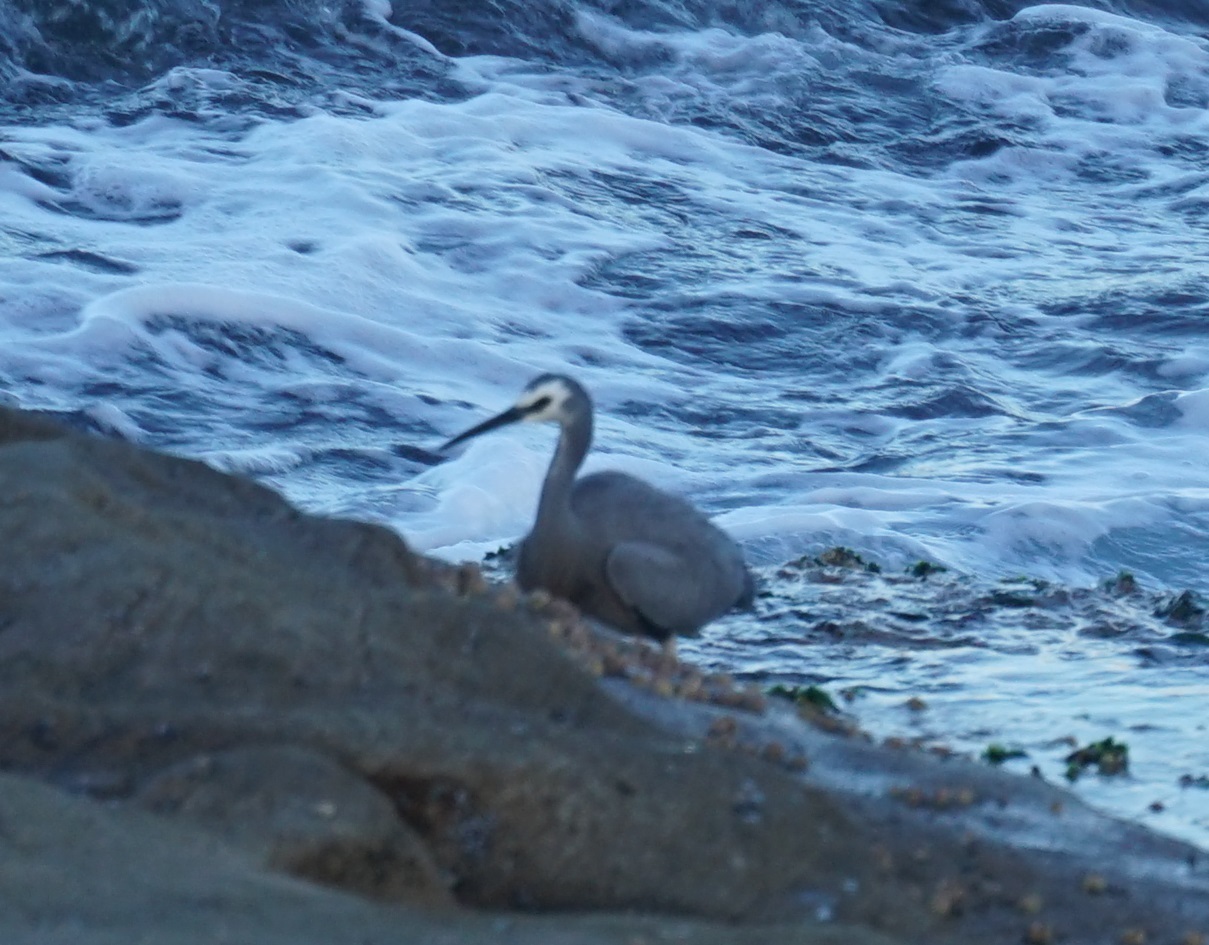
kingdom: Animalia
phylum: Chordata
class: Aves
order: Pelecaniformes
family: Ardeidae
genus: Egretta
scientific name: Egretta novaehollandiae
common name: White-faced heron
